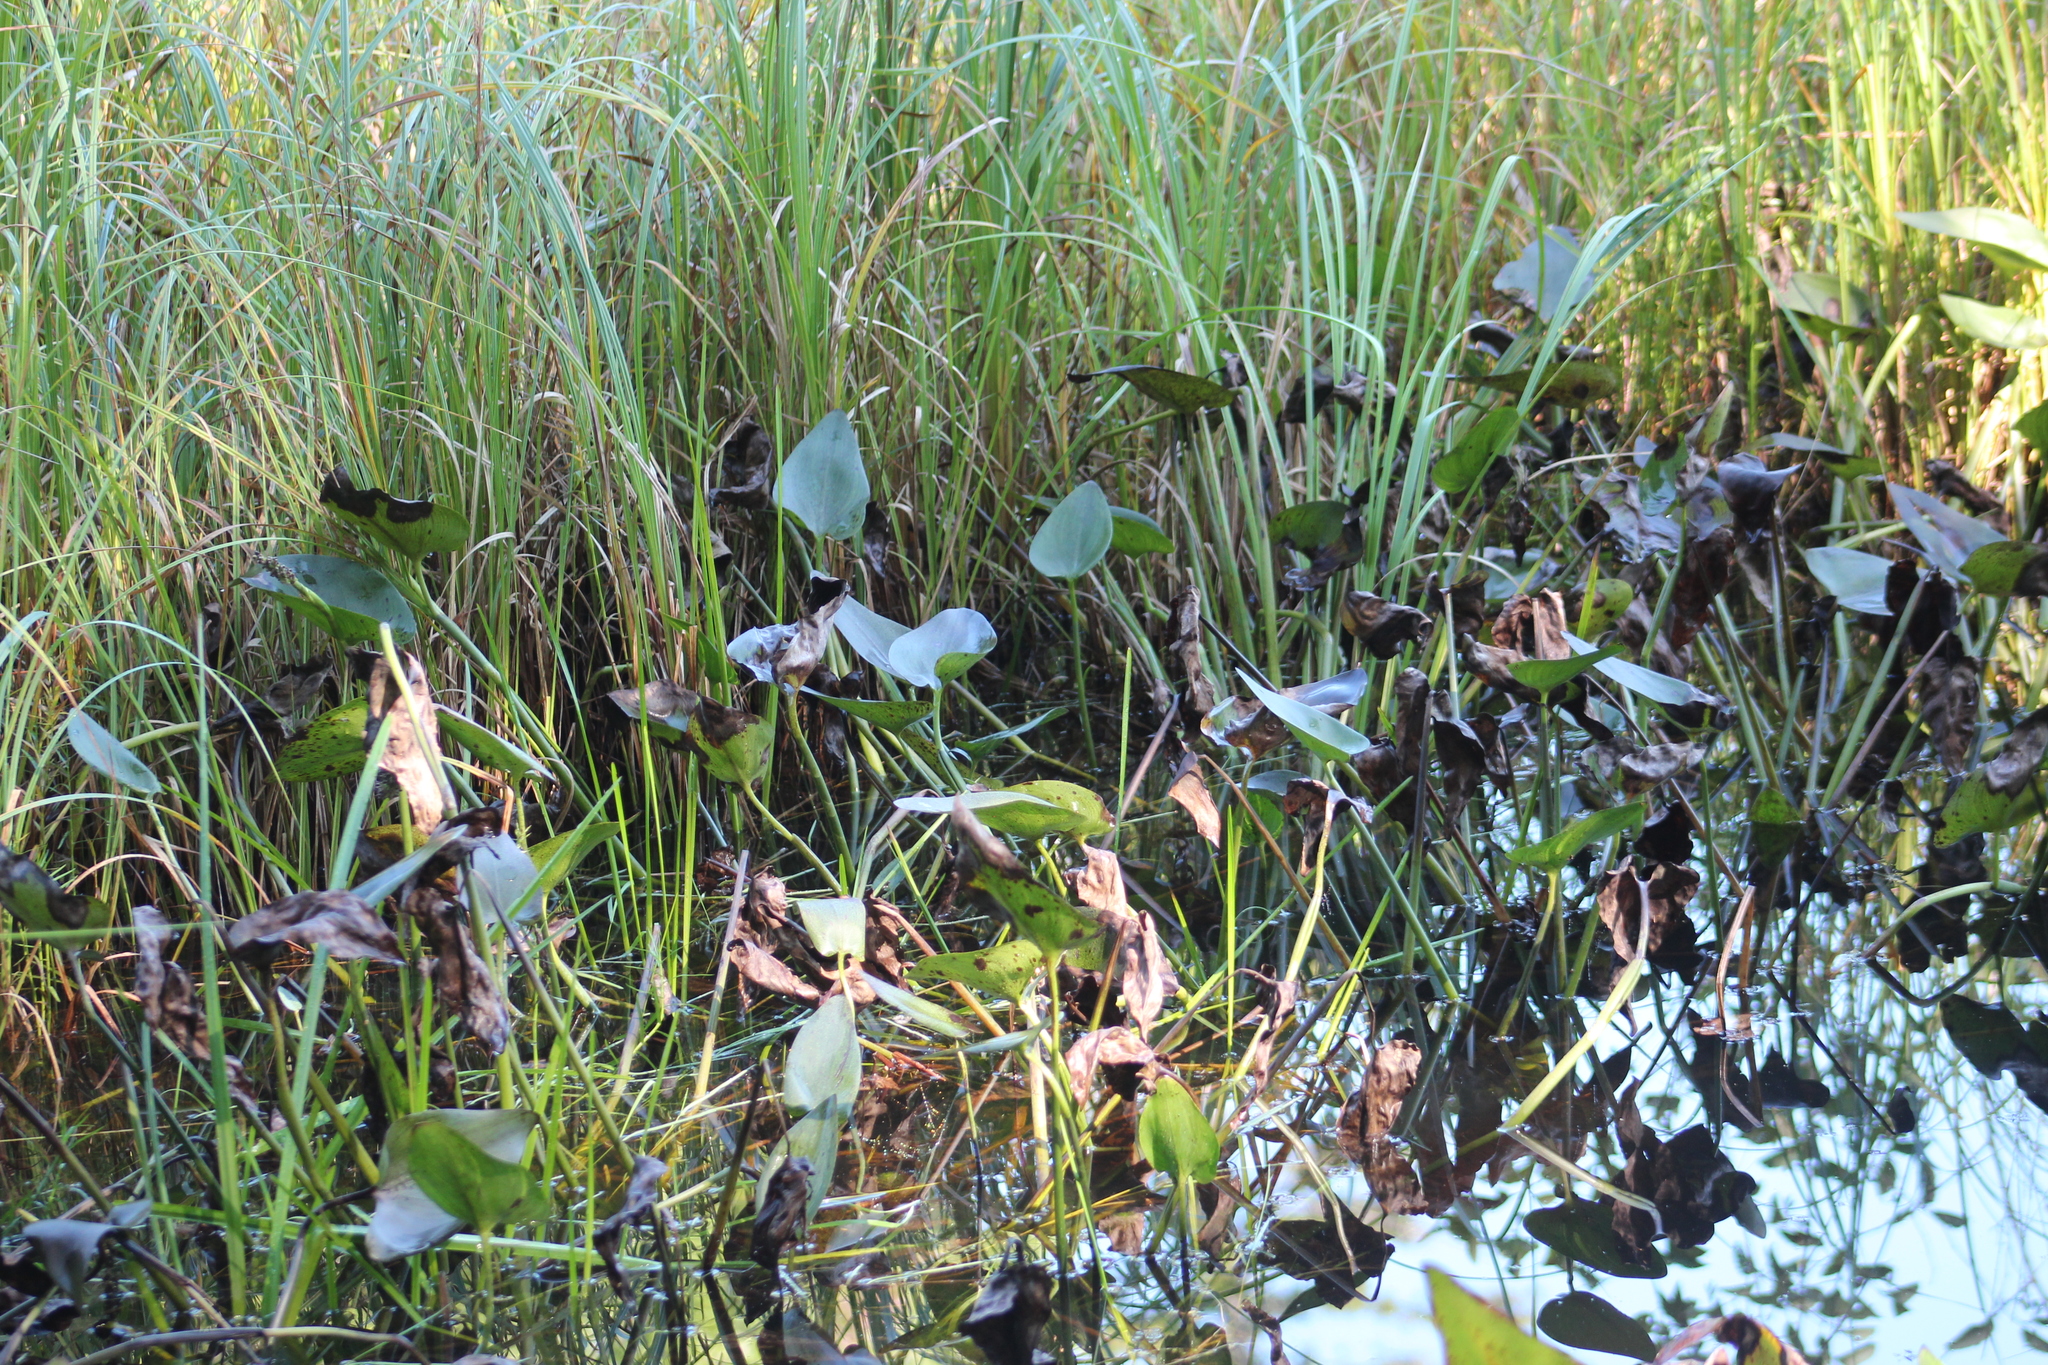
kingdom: Plantae
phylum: Tracheophyta
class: Liliopsida
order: Commelinales
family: Pontederiaceae
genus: Pontederia
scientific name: Pontederia cordata
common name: Pickerelweed
